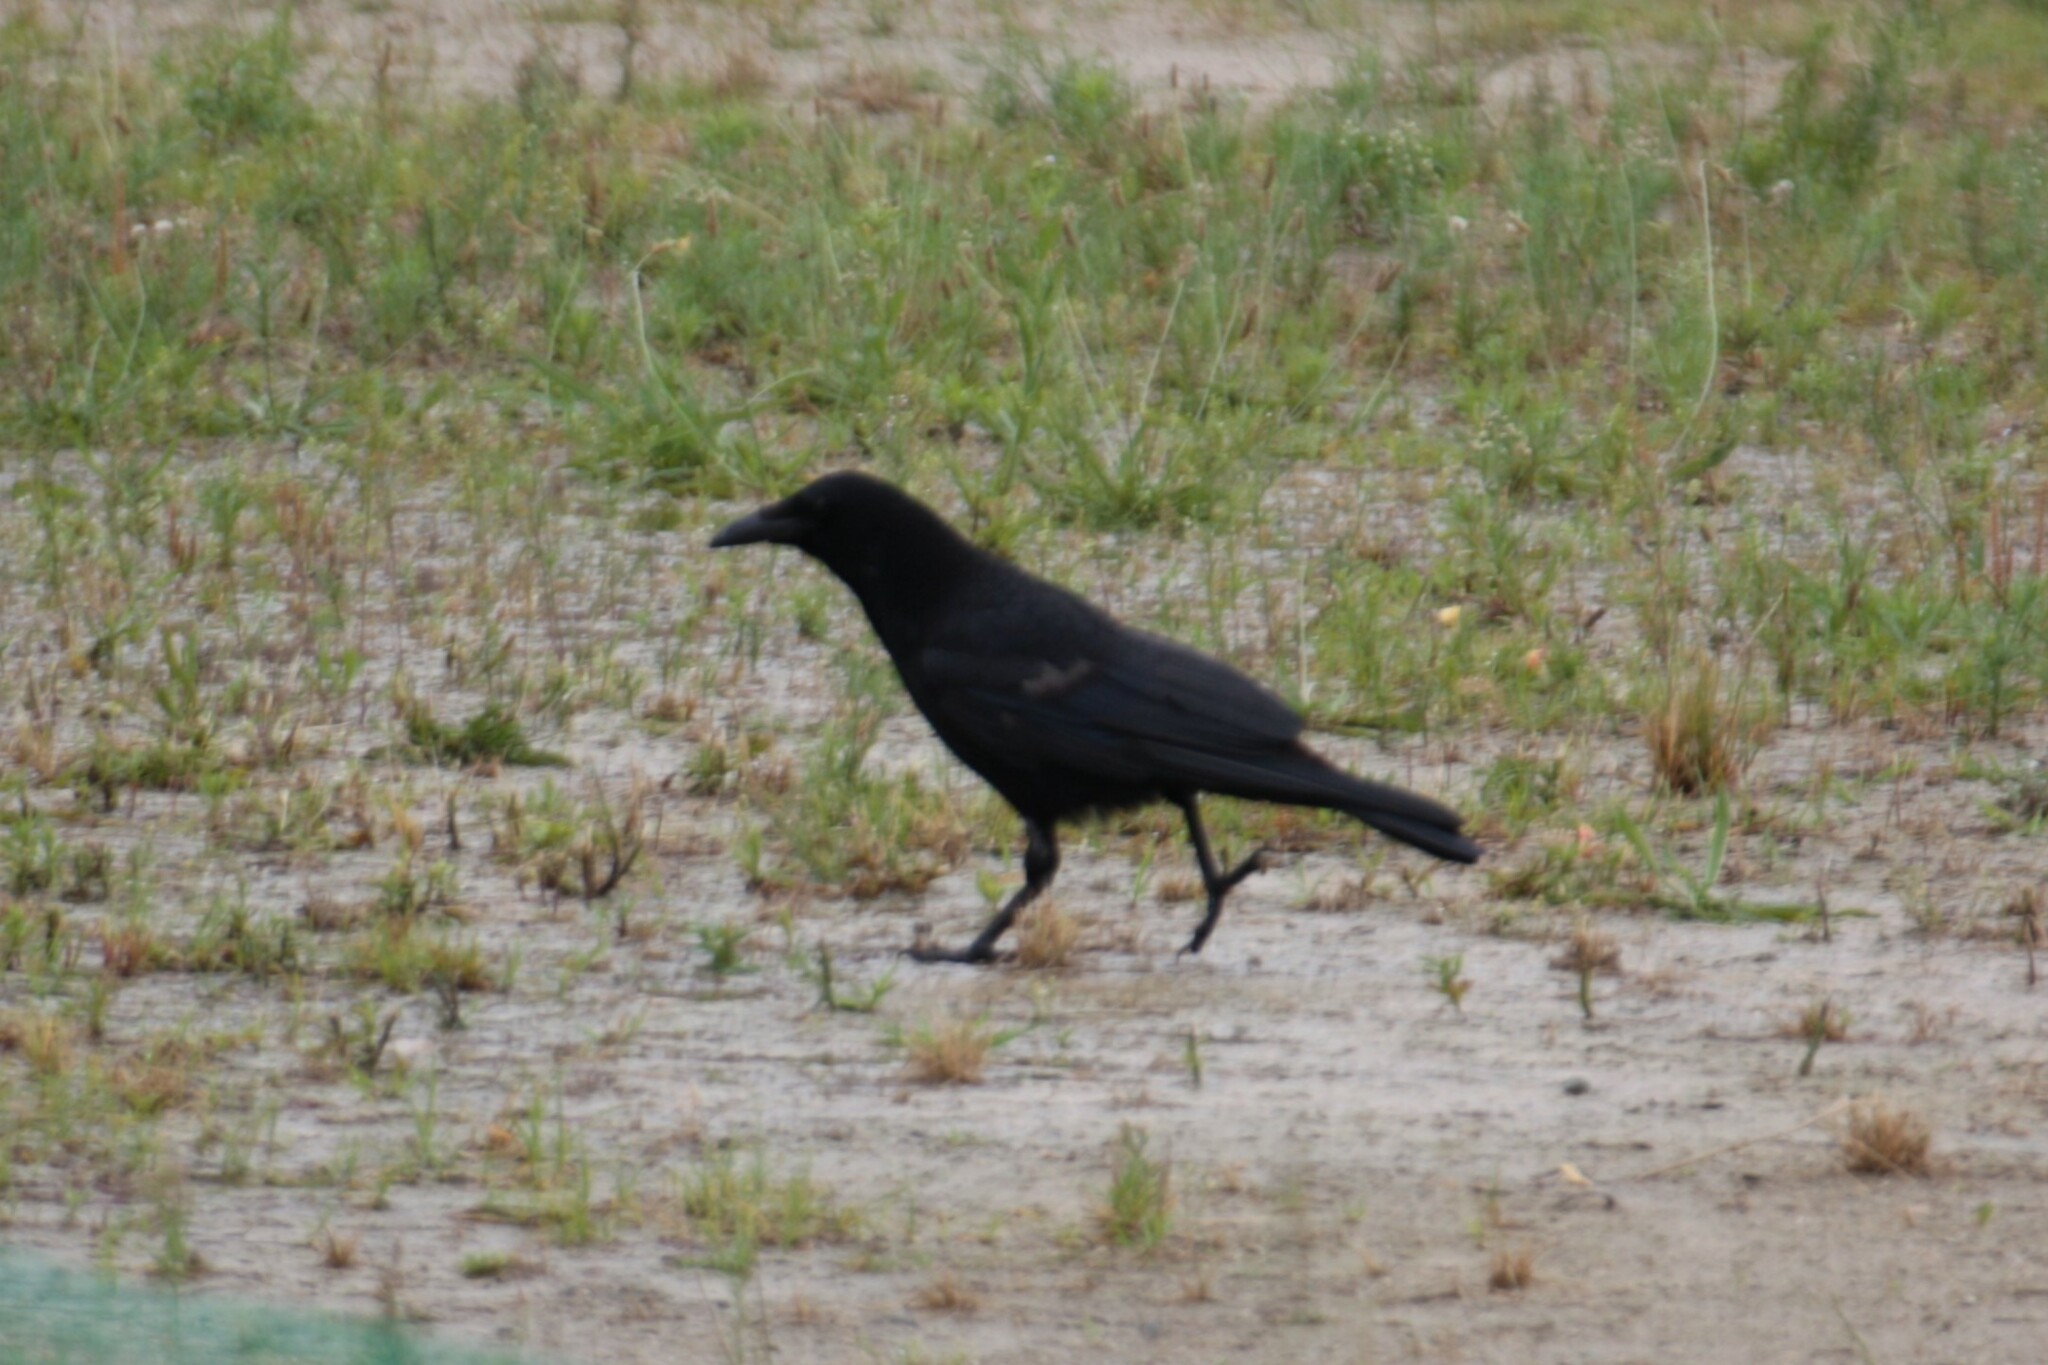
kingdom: Animalia
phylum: Chordata
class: Aves
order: Passeriformes
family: Corvidae
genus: Corvus
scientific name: Corvus corone
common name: Carrion crow
